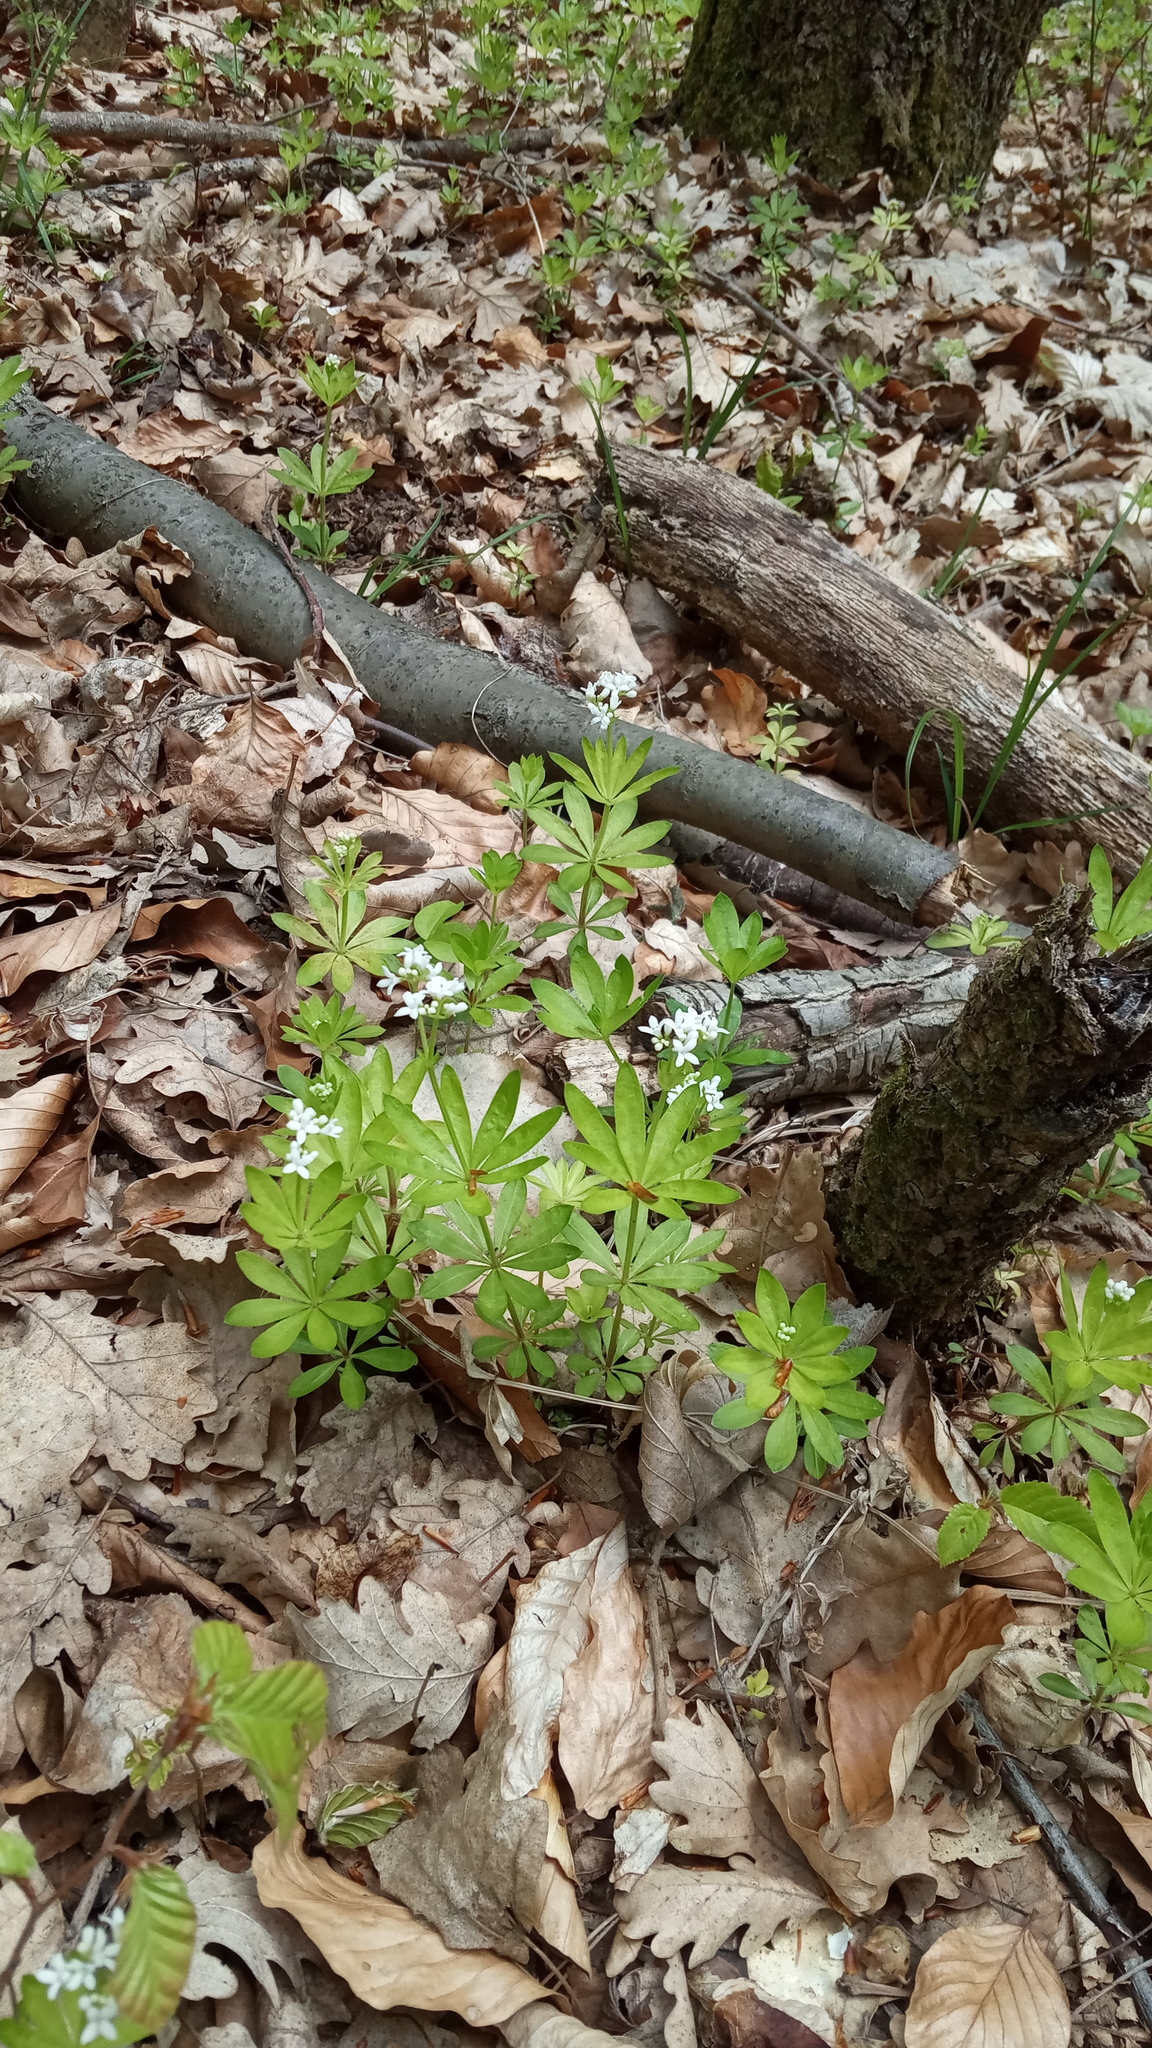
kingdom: Plantae
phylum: Tracheophyta
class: Magnoliopsida
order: Gentianales
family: Rubiaceae
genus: Galium
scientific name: Galium odoratum
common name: Sweet woodruff
